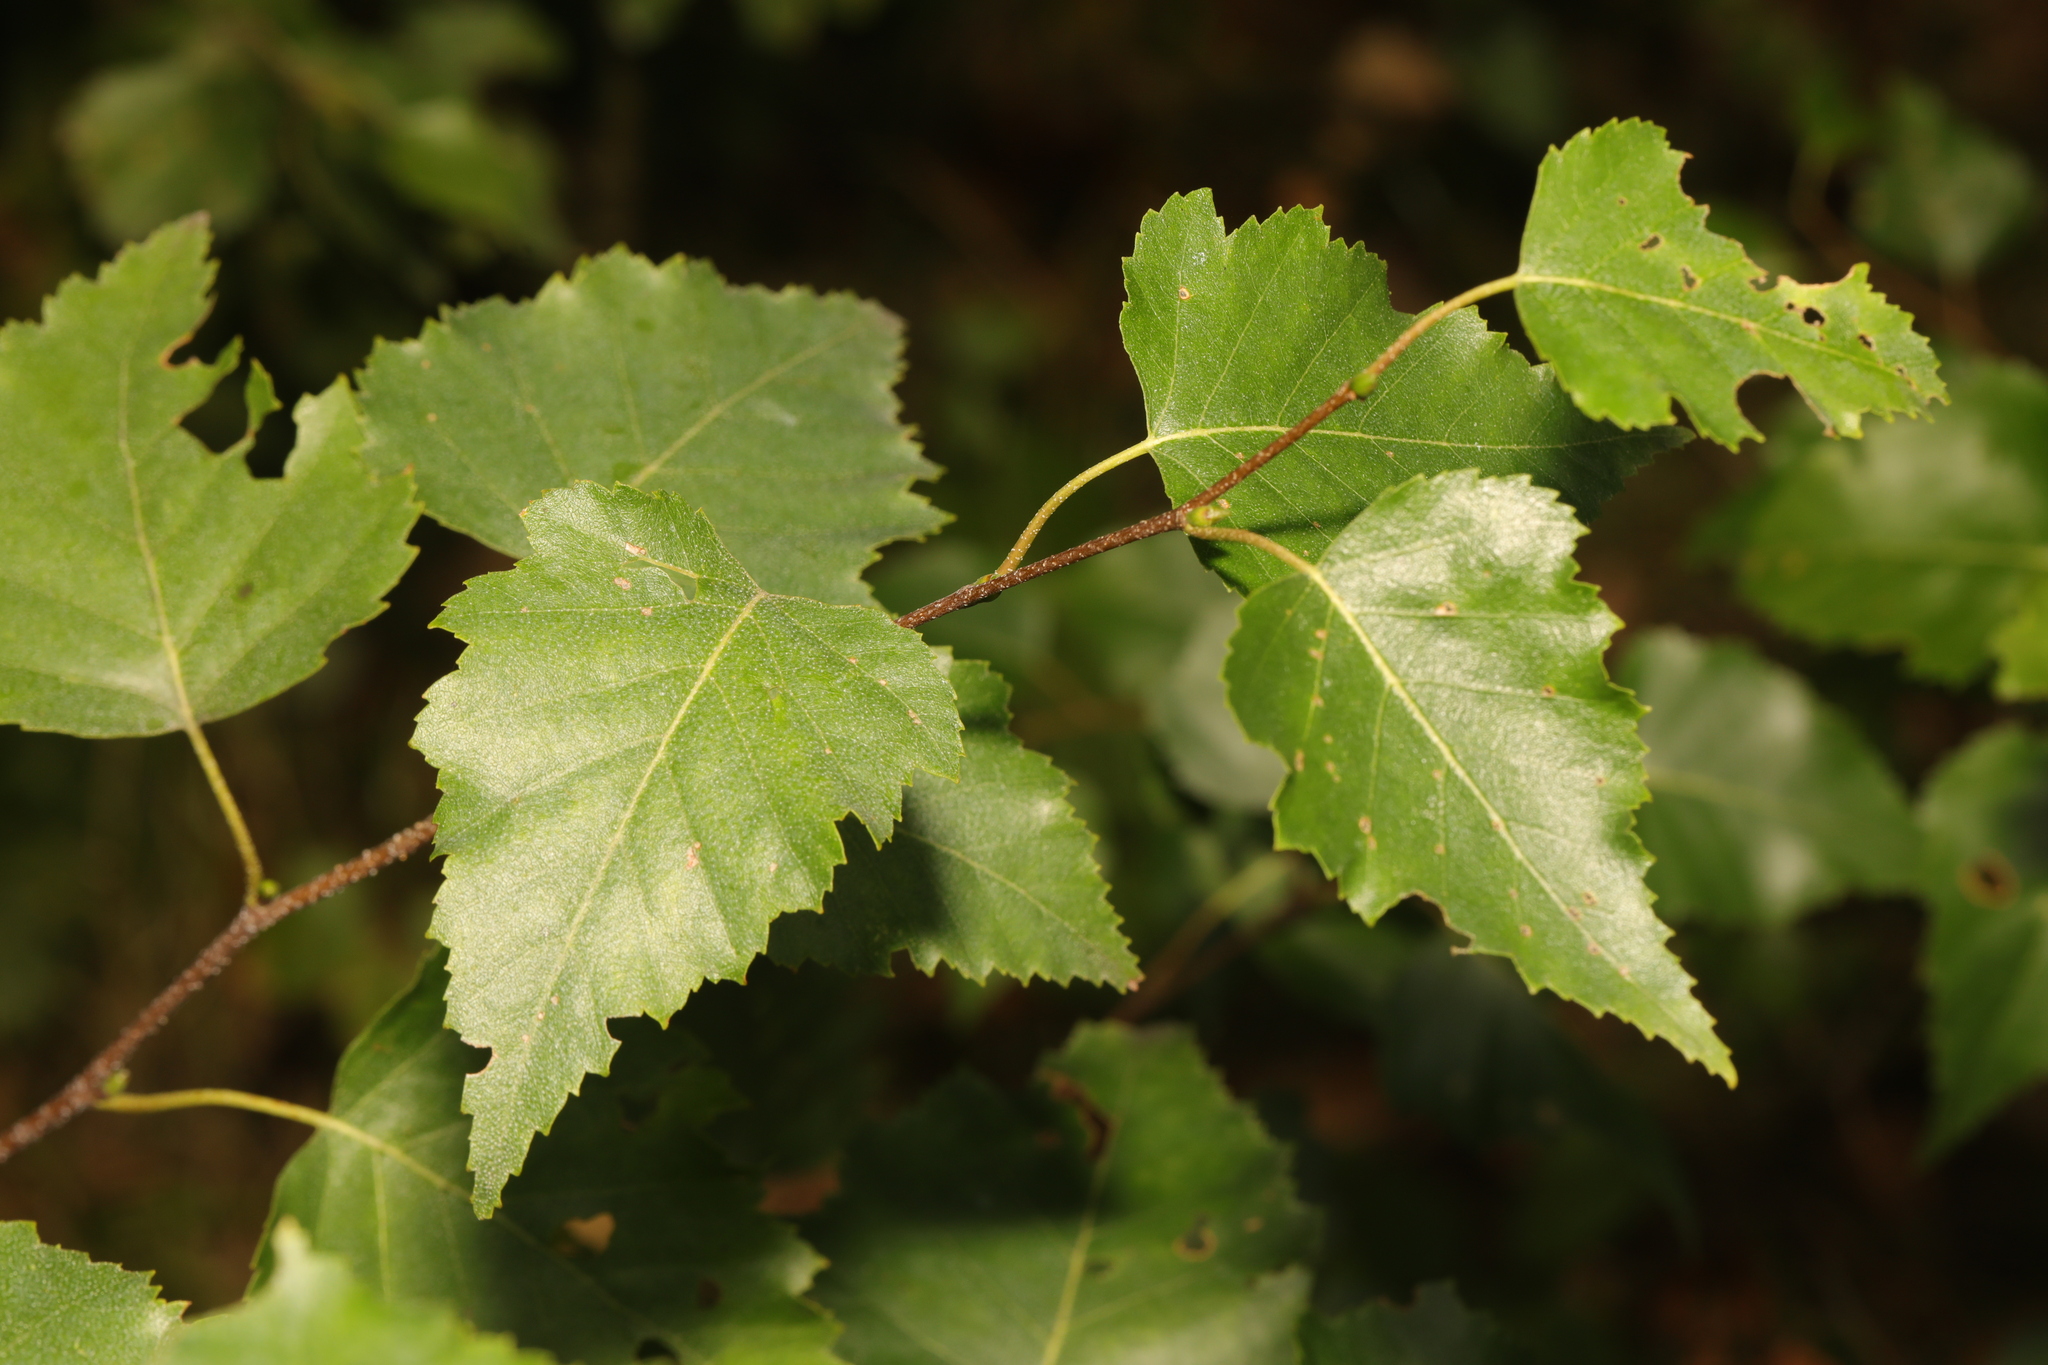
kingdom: Plantae
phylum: Tracheophyta
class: Magnoliopsida
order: Fagales
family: Betulaceae
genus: Betula
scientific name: Betula pendula
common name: Silver birch
